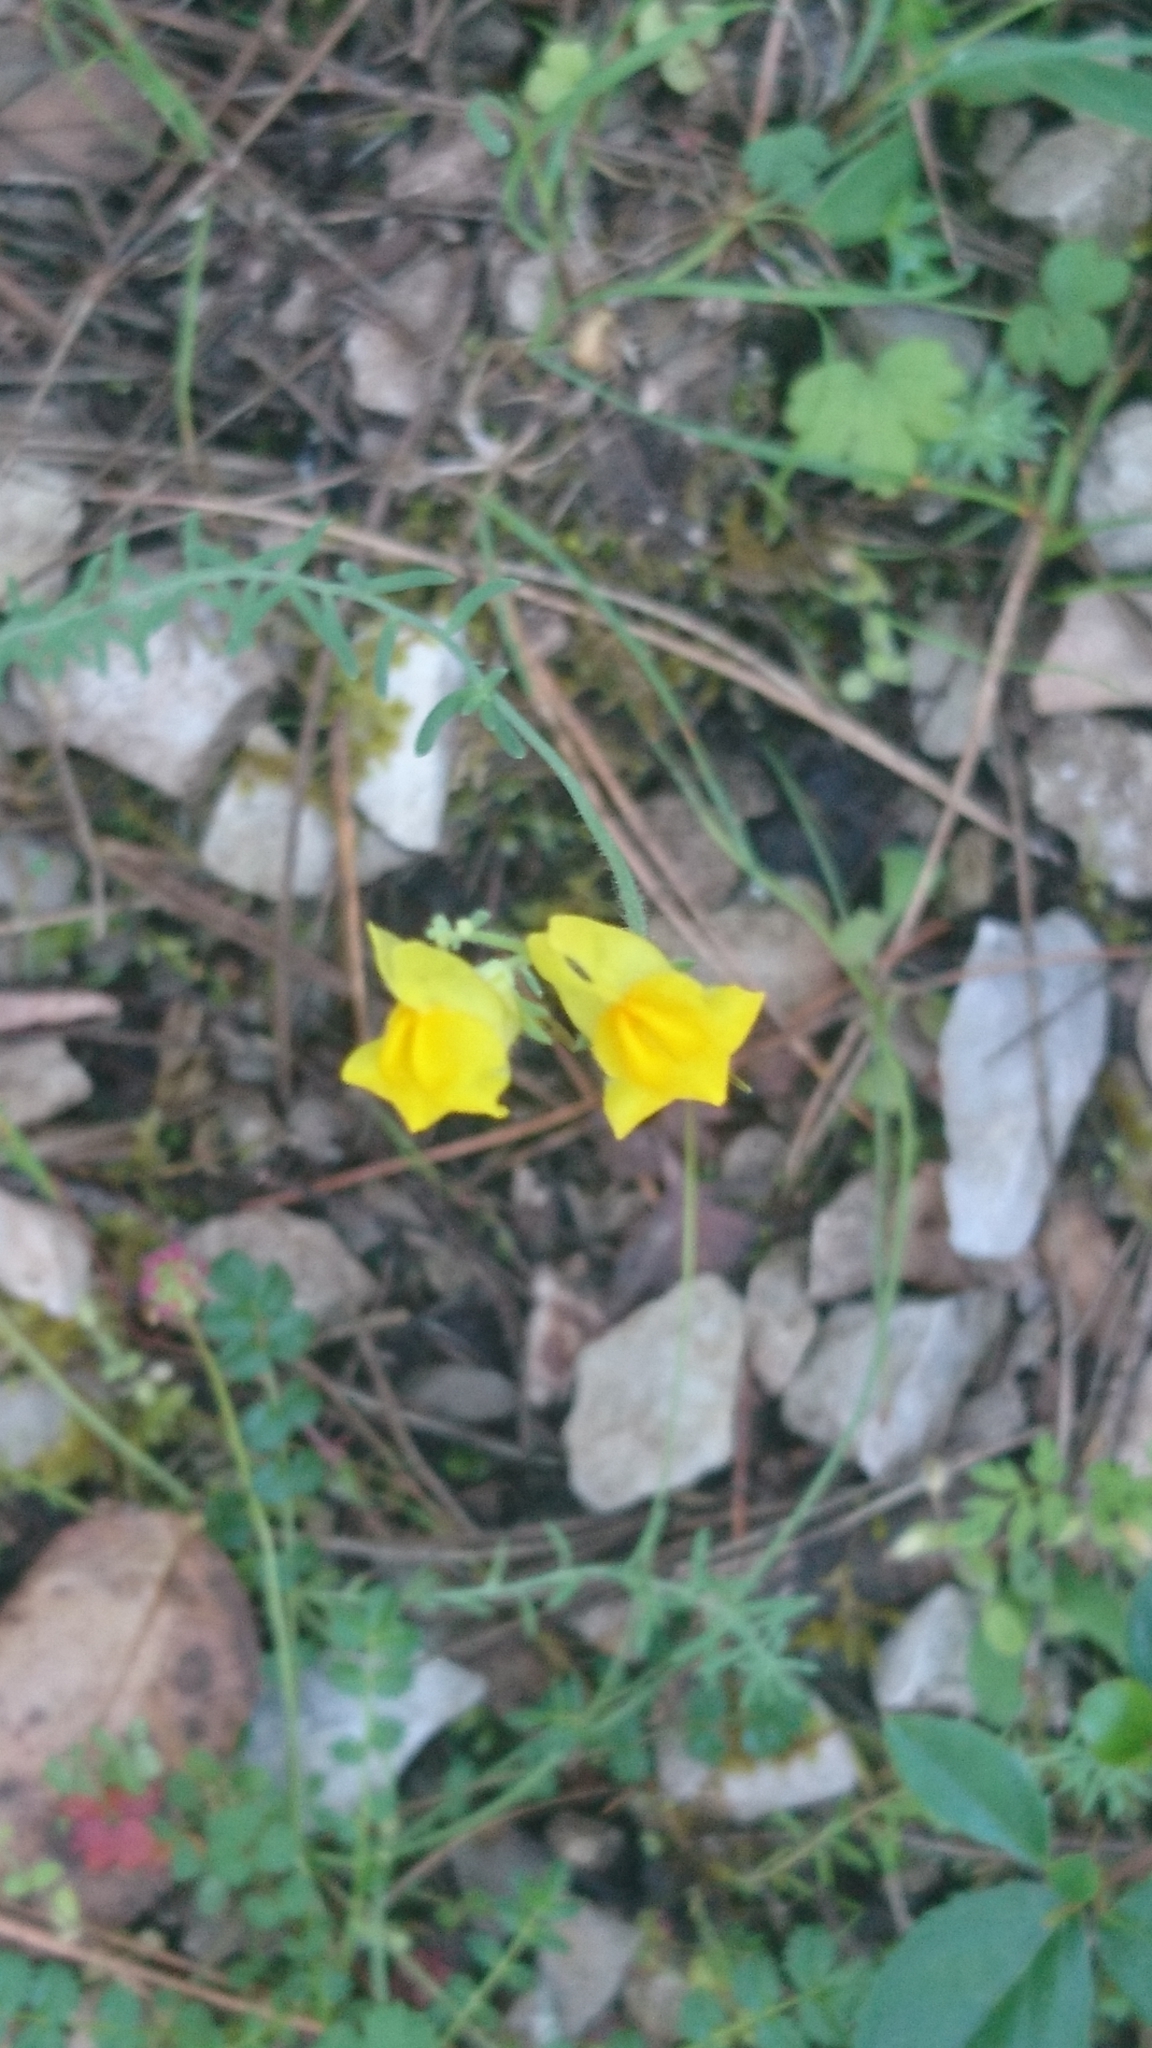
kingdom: Plantae
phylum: Tracheophyta
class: Magnoliopsida
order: Lamiales
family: Plantaginaceae
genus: Linaria
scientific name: Linaria supina
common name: Prostrate toadflax
